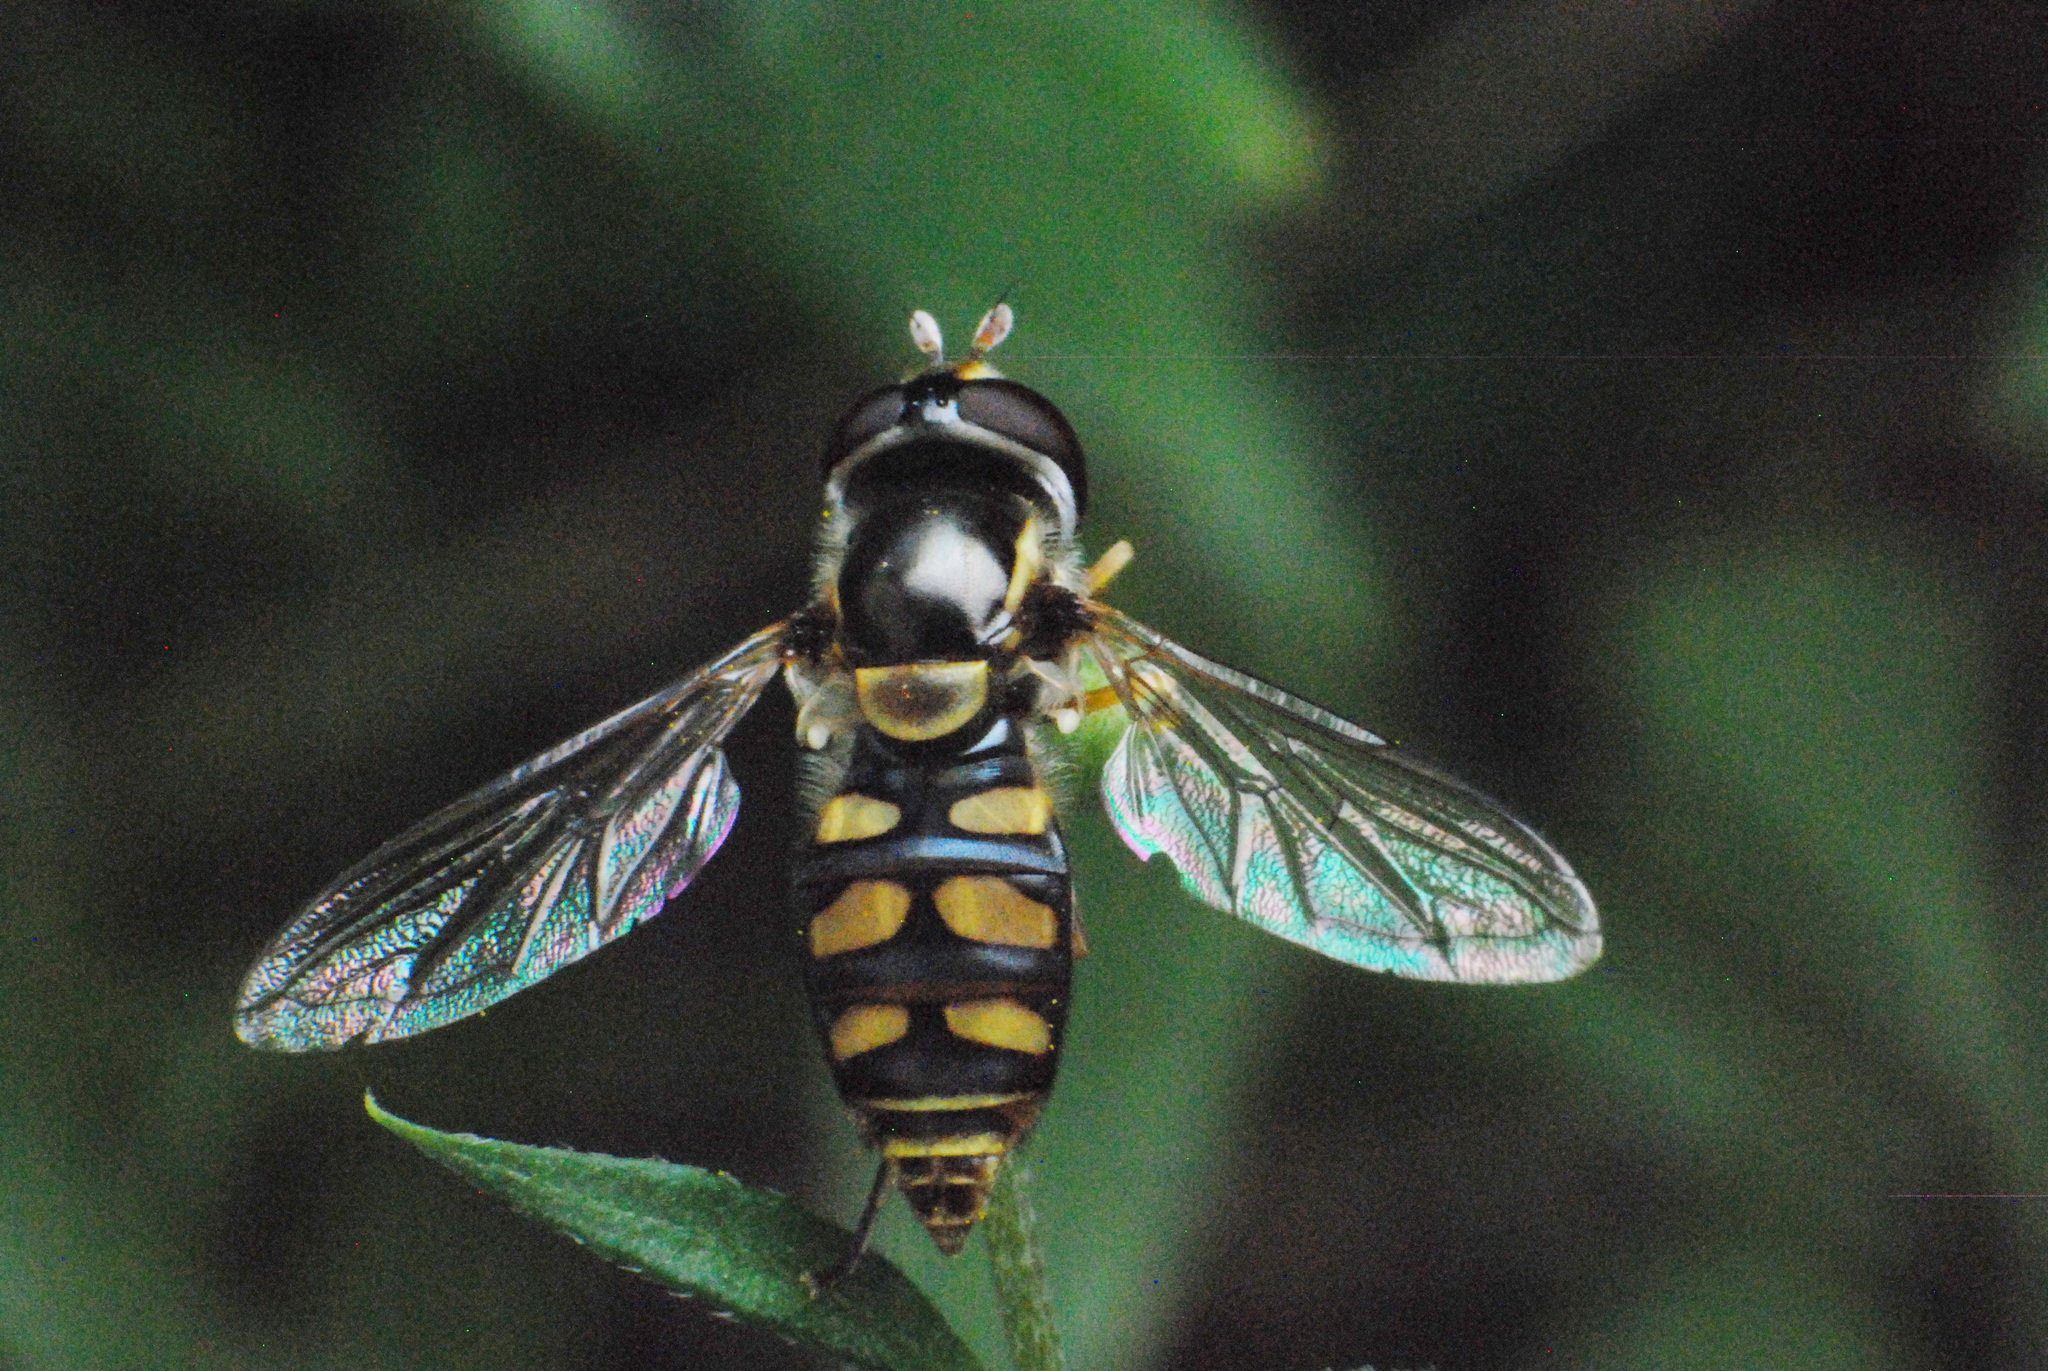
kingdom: Animalia
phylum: Arthropoda
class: Insecta
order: Diptera
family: Syrphidae
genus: Ischiodon
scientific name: Ischiodon scutellaris
